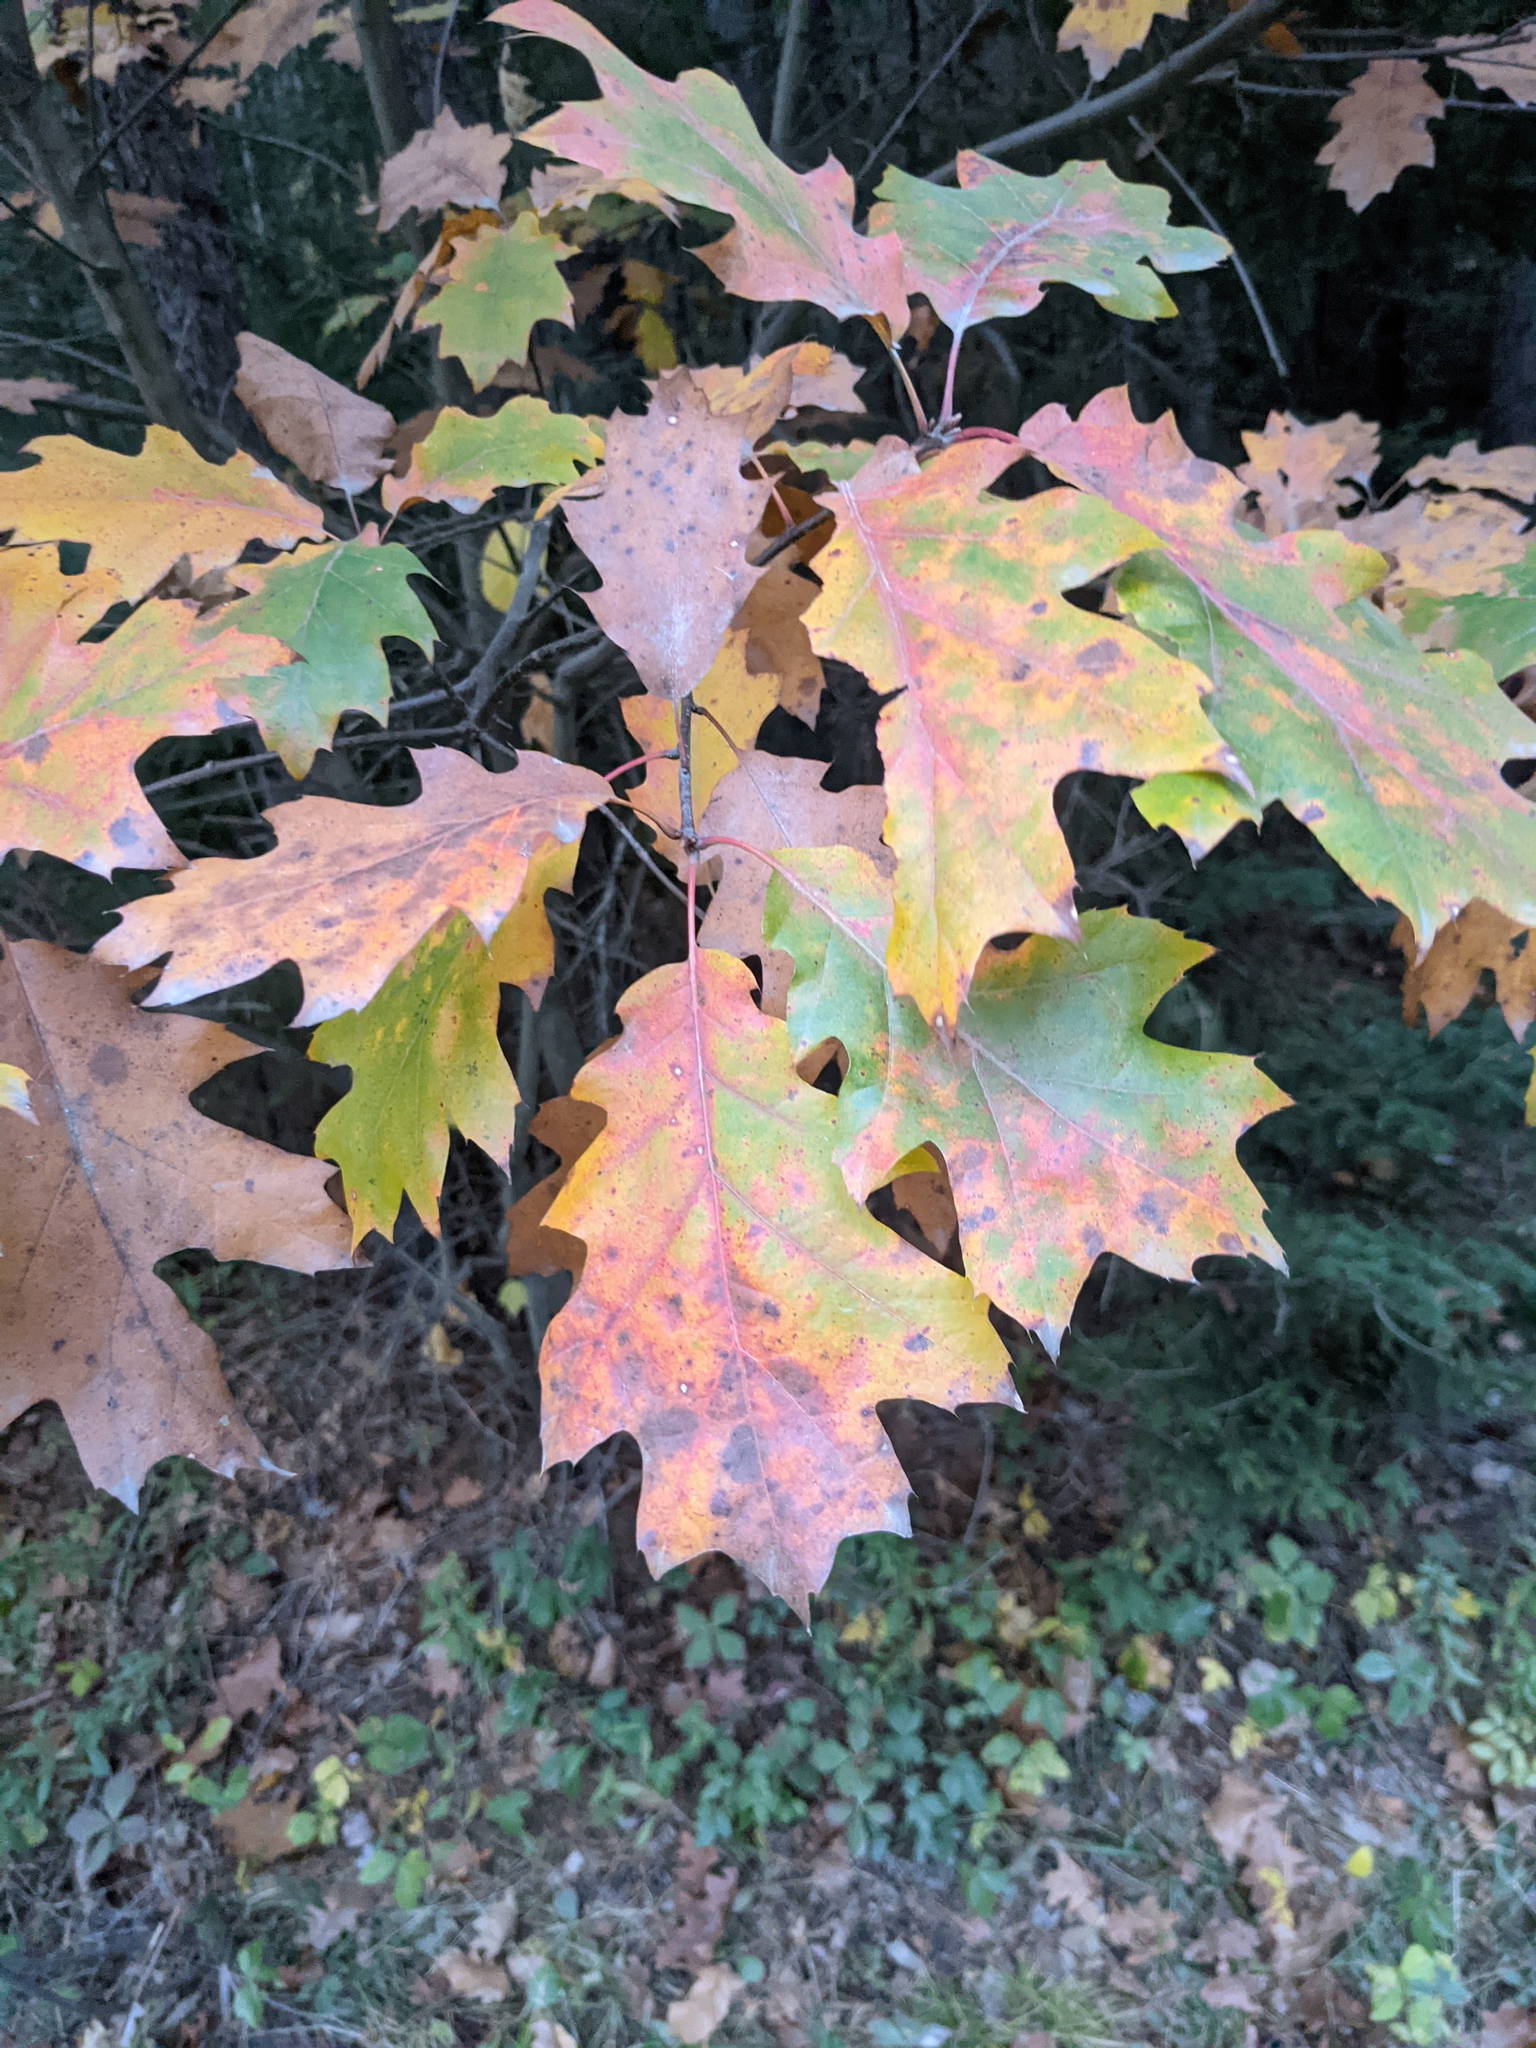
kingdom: Plantae
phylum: Tracheophyta
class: Magnoliopsida
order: Fagales
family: Fagaceae
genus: Quercus
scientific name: Quercus rubra
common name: Red oak
